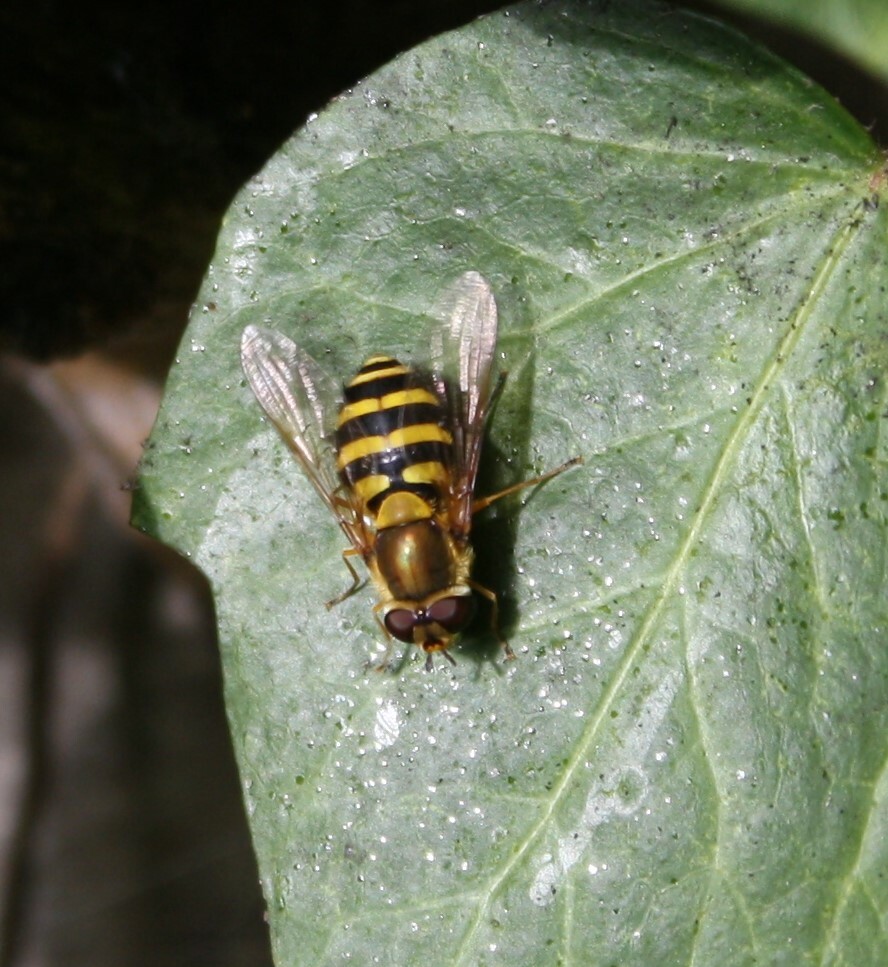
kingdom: Animalia
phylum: Arthropoda
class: Insecta
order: Diptera
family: Syrphidae
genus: Syrphus
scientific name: Syrphus
